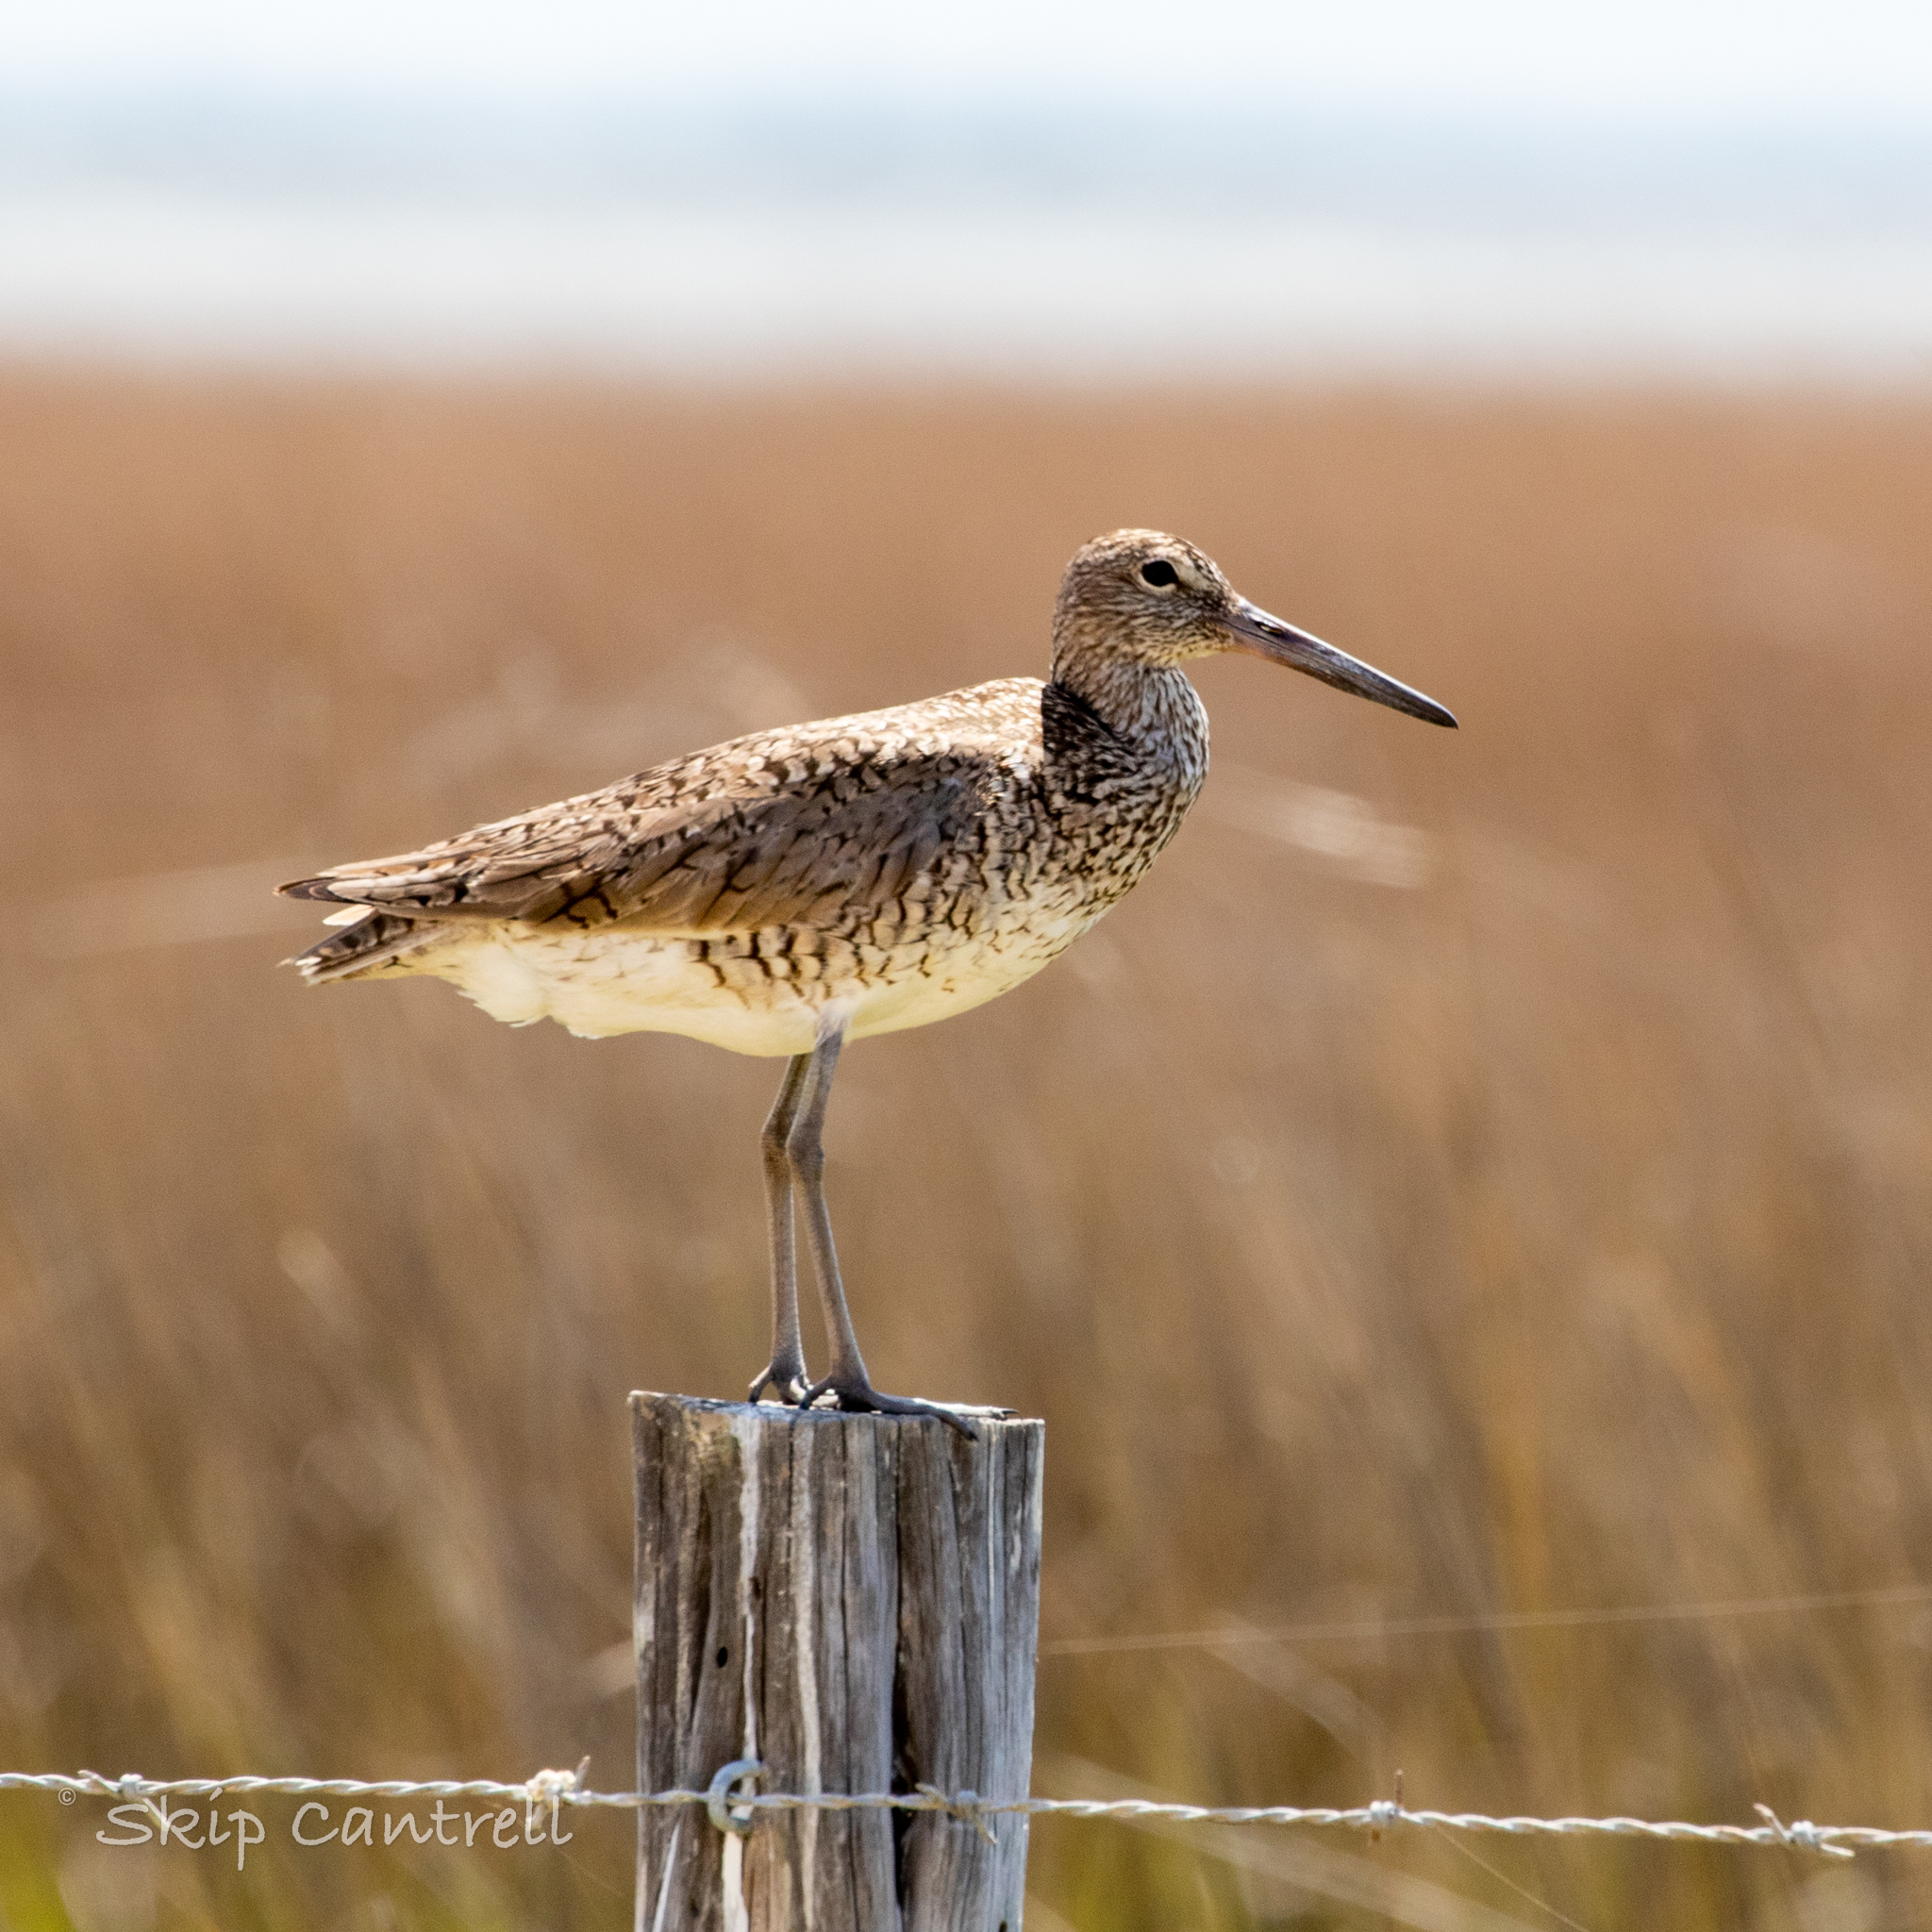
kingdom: Animalia
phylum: Chordata
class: Aves
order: Charadriiformes
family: Scolopacidae
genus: Tringa
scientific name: Tringa semipalmata
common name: Willet
